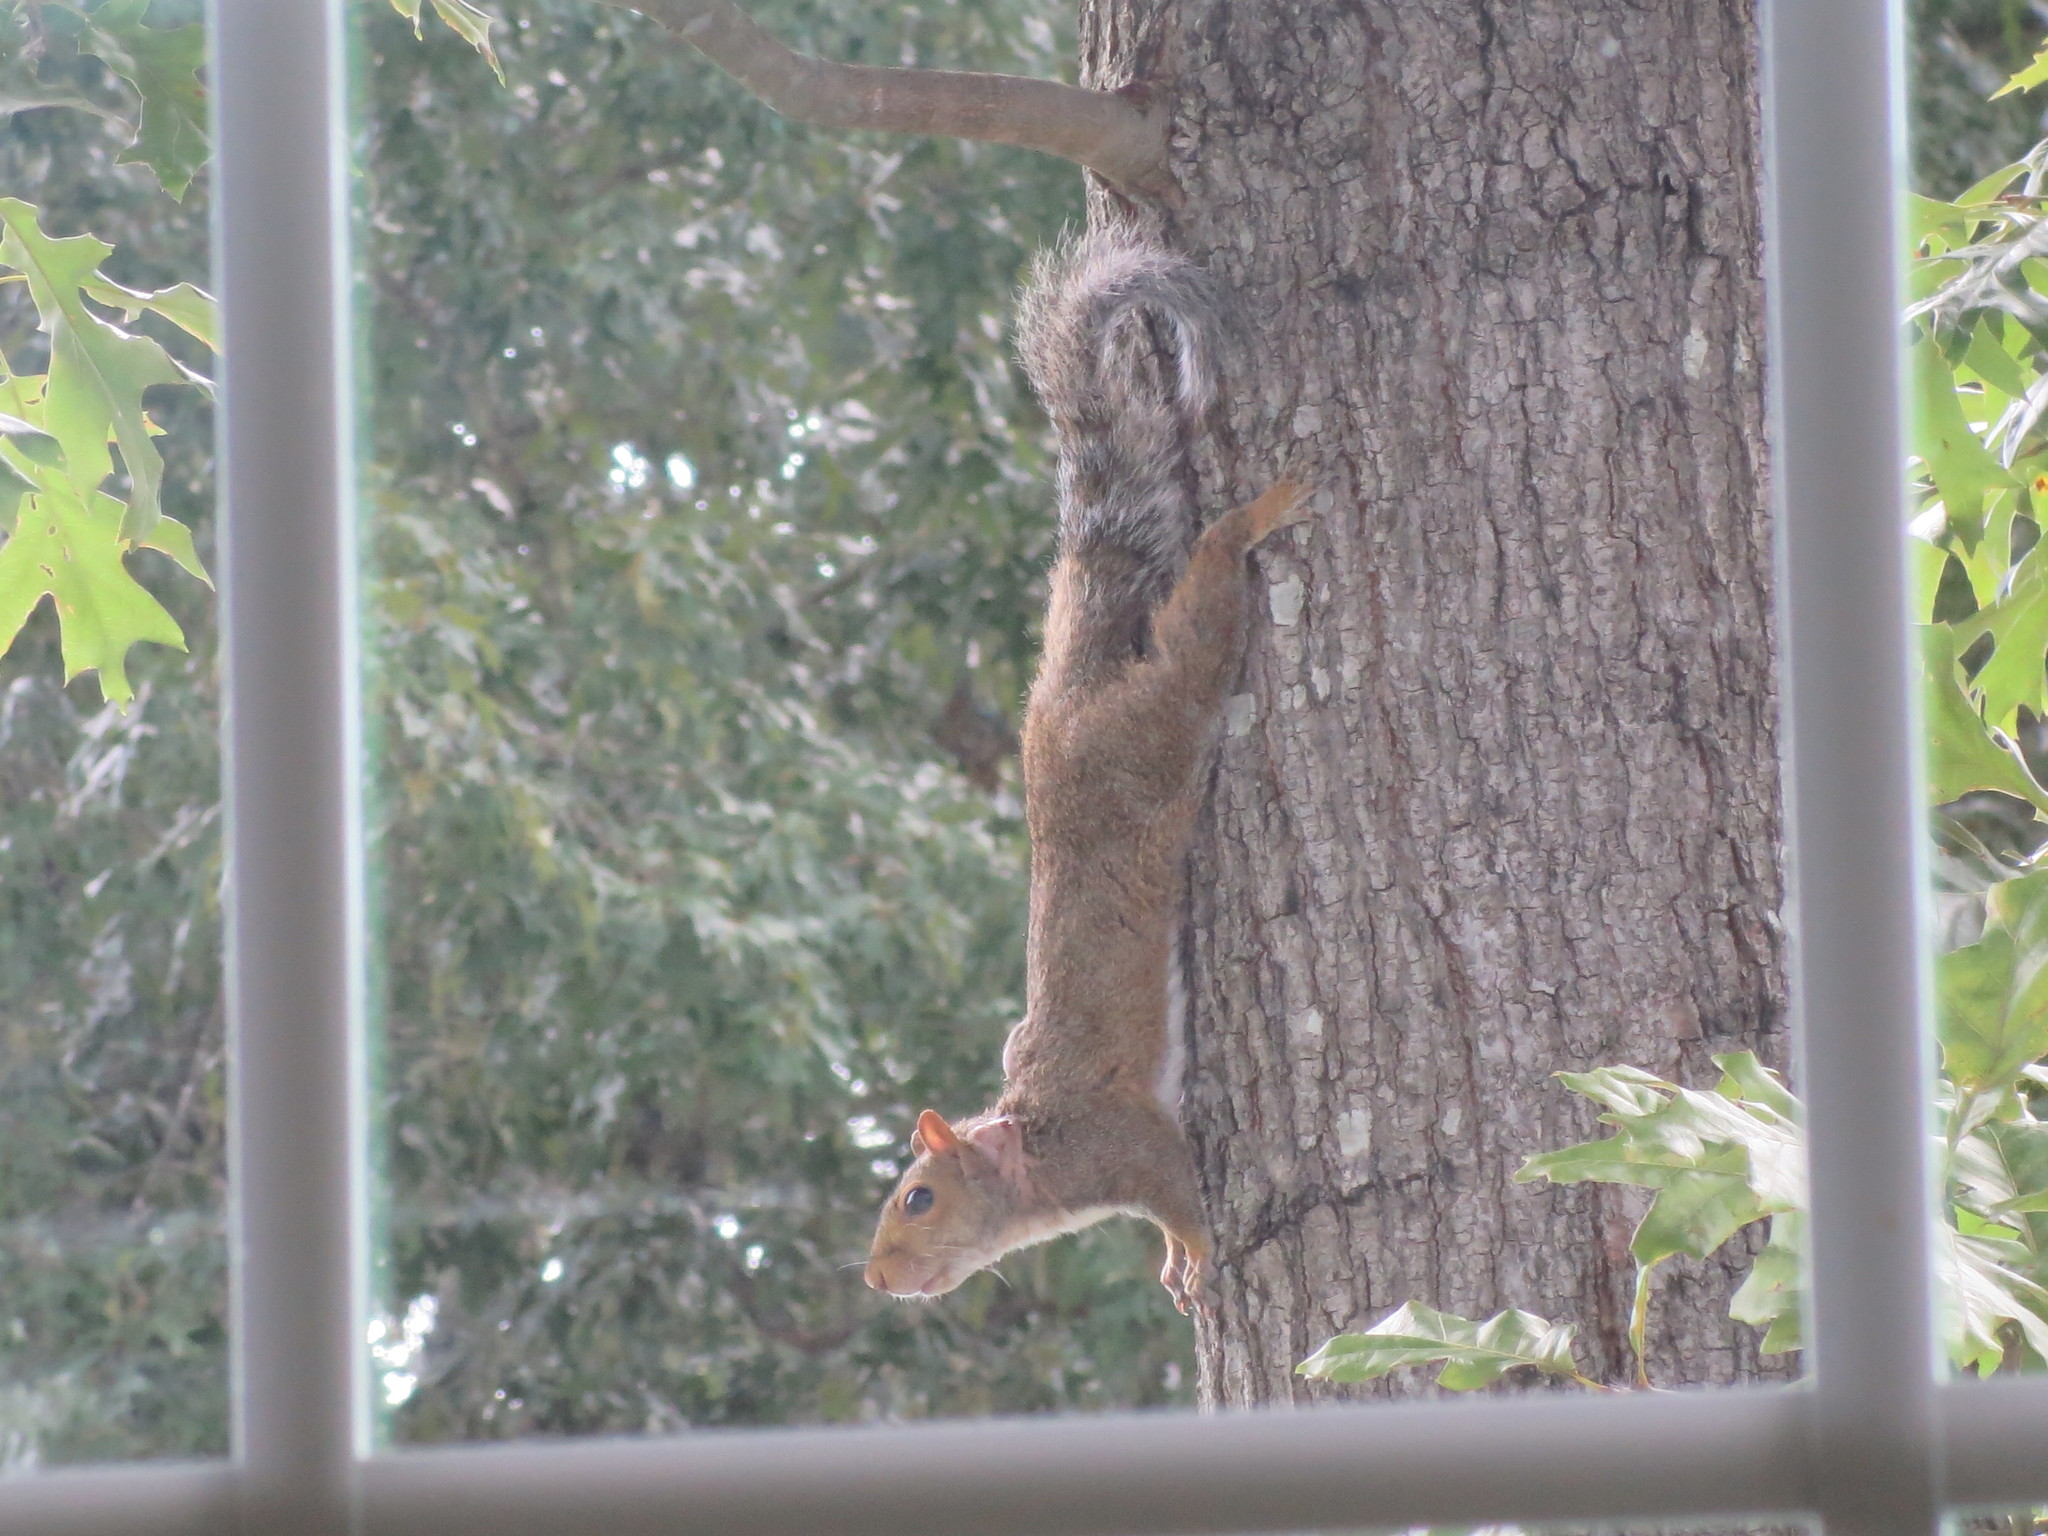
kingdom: Animalia
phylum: Chordata
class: Mammalia
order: Rodentia
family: Sciuridae
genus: Sciurus
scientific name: Sciurus carolinensis
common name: Eastern gray squirrel
